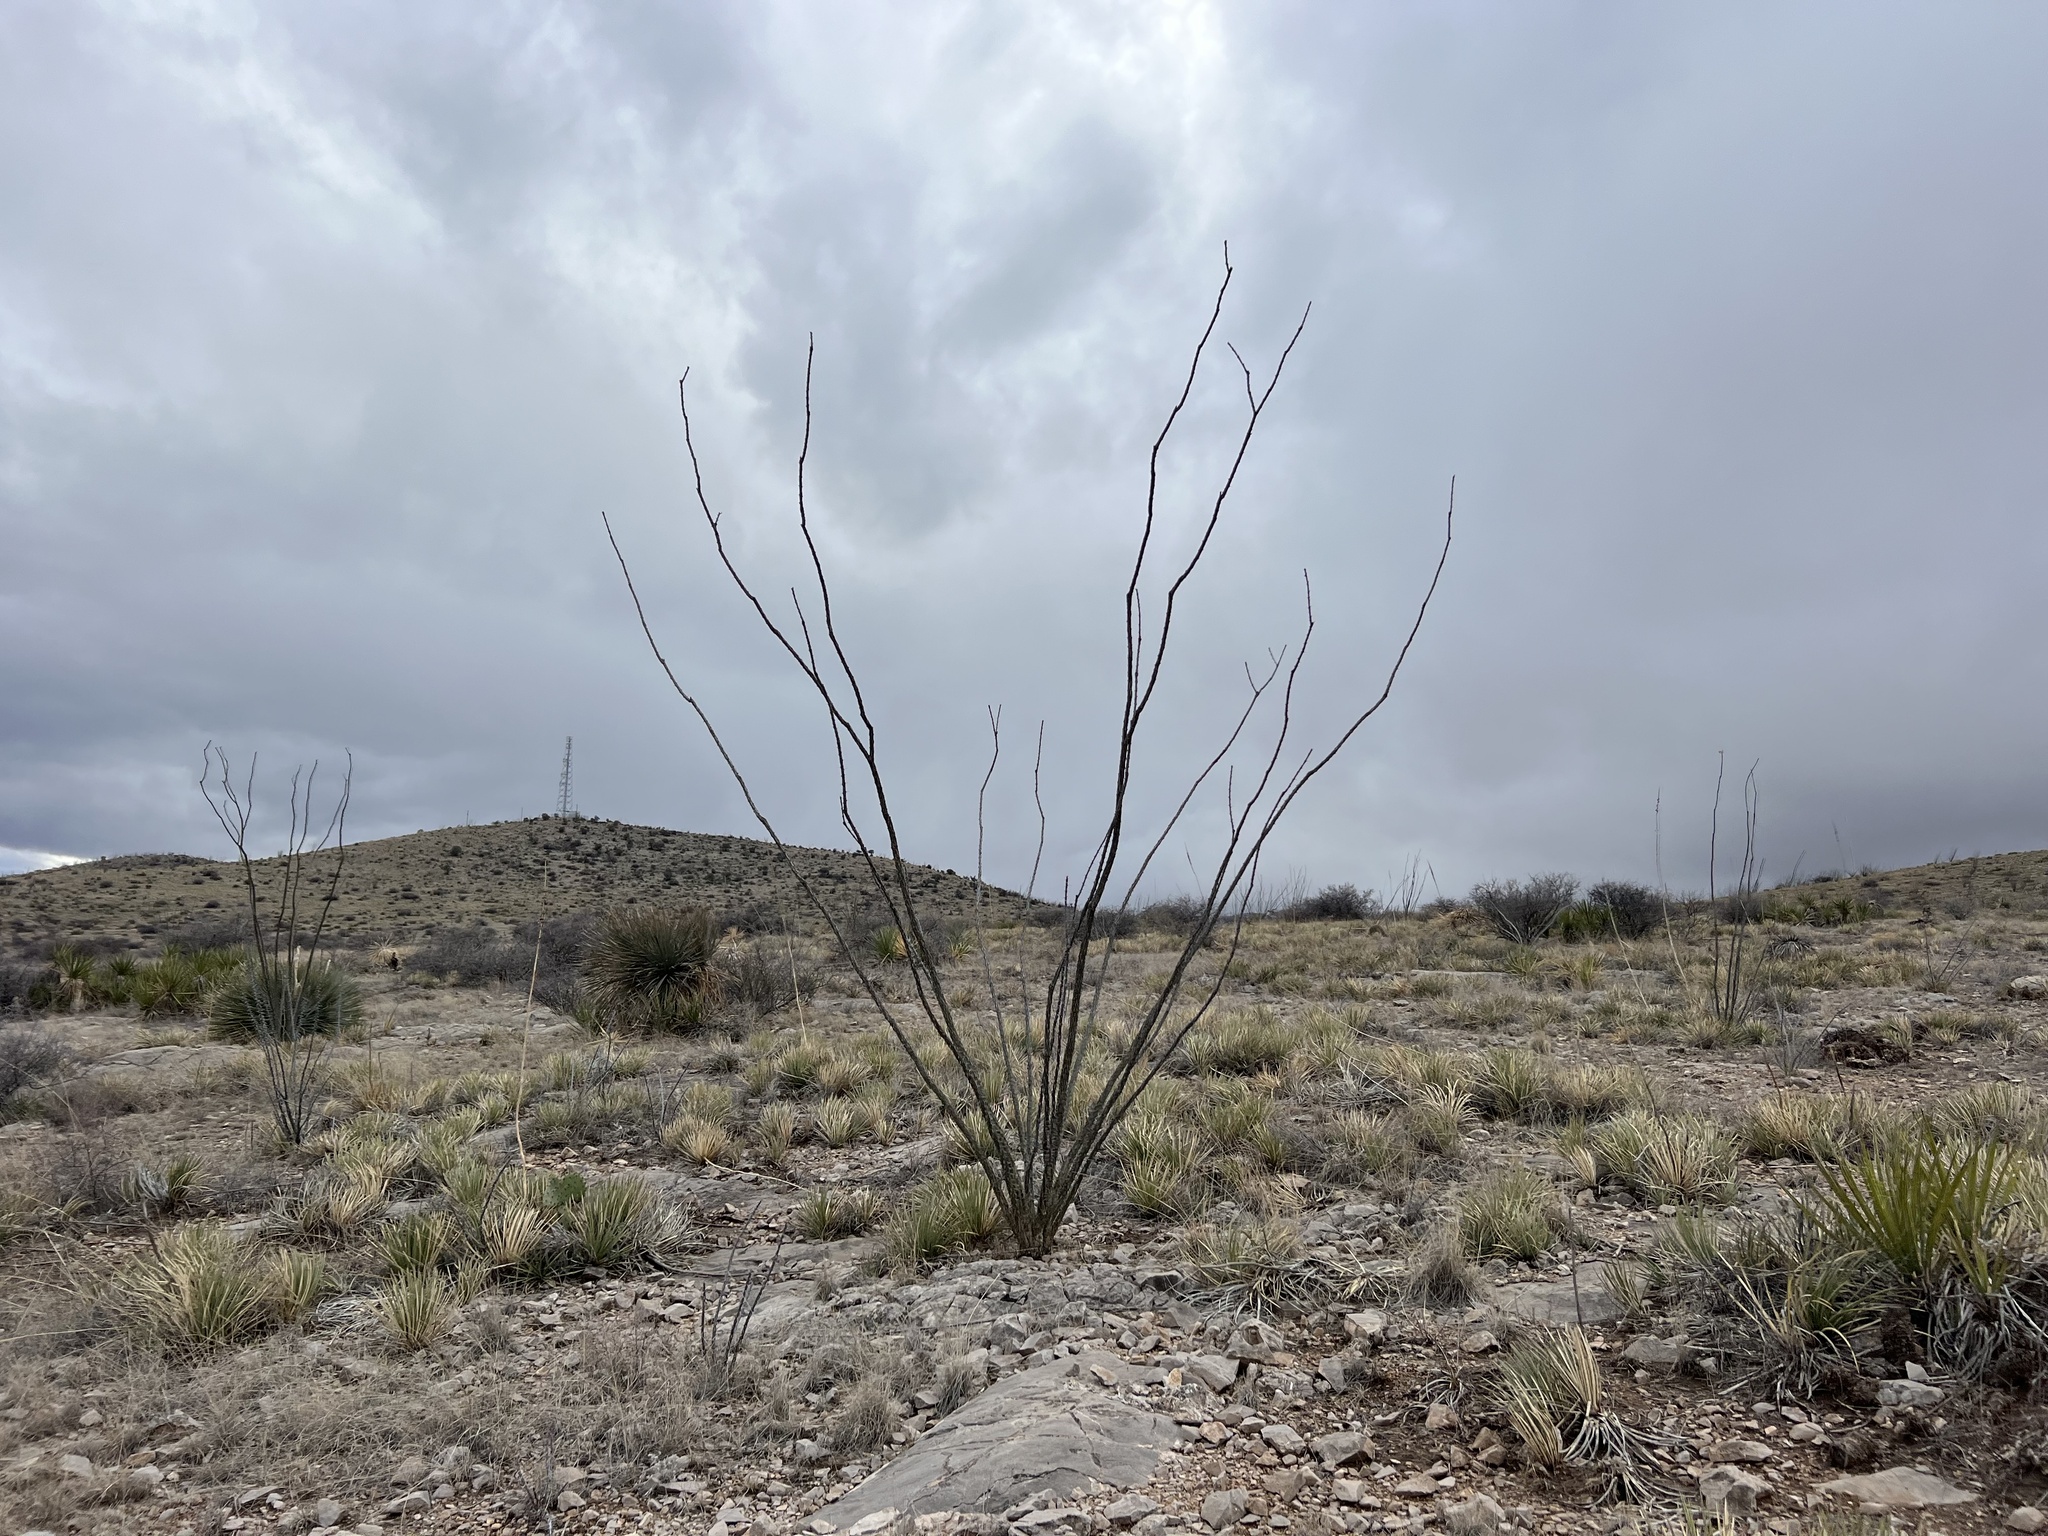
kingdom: Plantae
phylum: Tracheophyta
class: Magnoliopsida
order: Ericales
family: Fouquieriaceae
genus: Fouquieria
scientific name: Fouquieria splendens
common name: Vine-cactus
